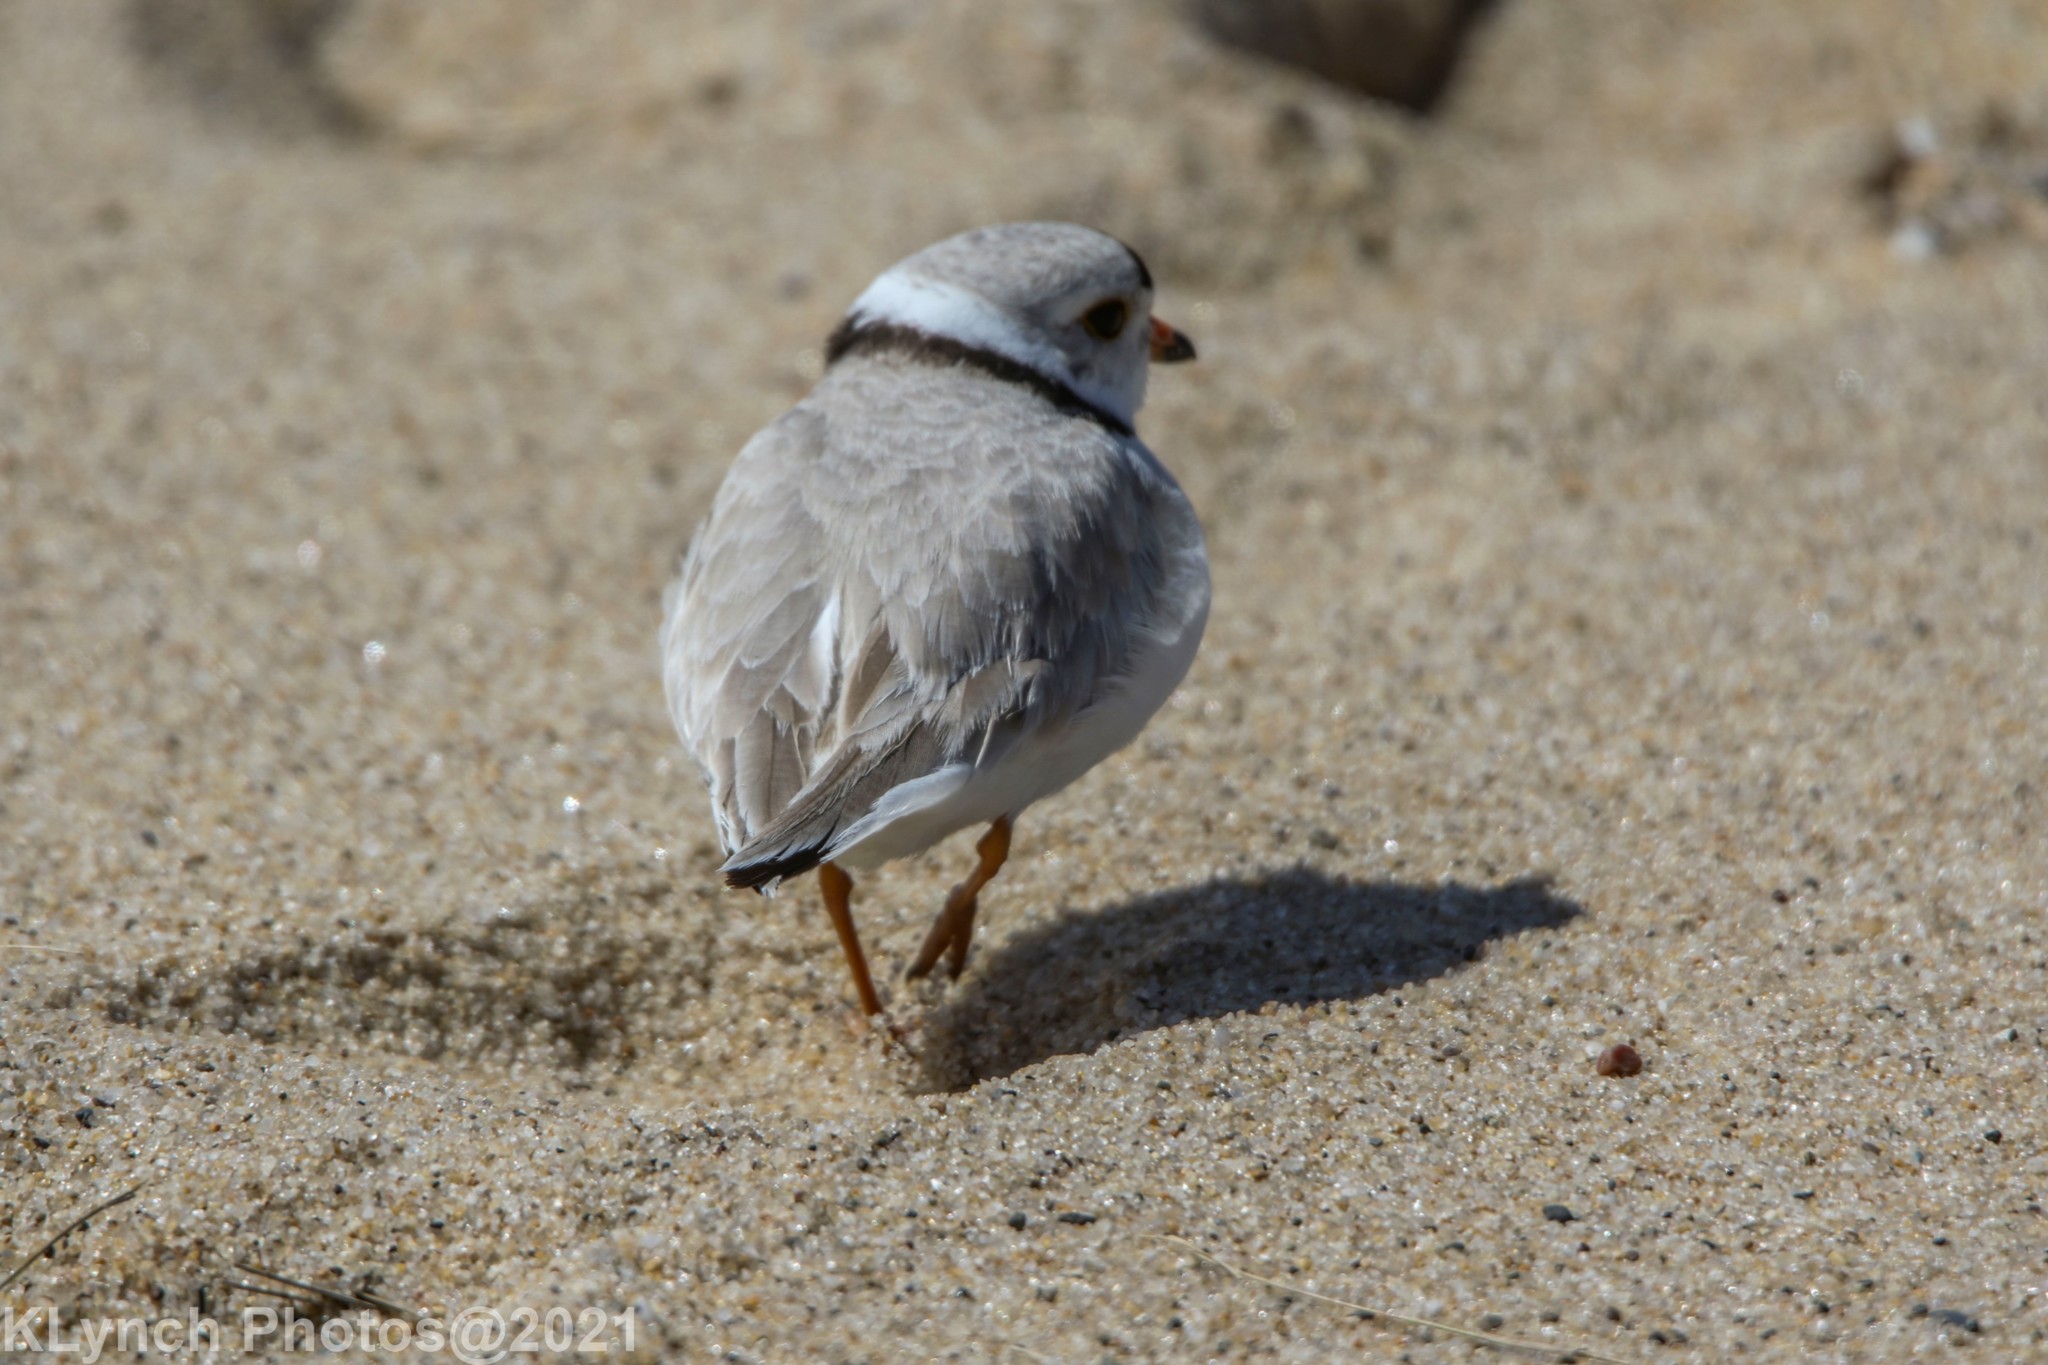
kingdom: Animalia
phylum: Chordata
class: Aves
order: Charadriiformes
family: Charadriidae
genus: Charadrius
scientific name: Charadrius melodus
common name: Piping plover
